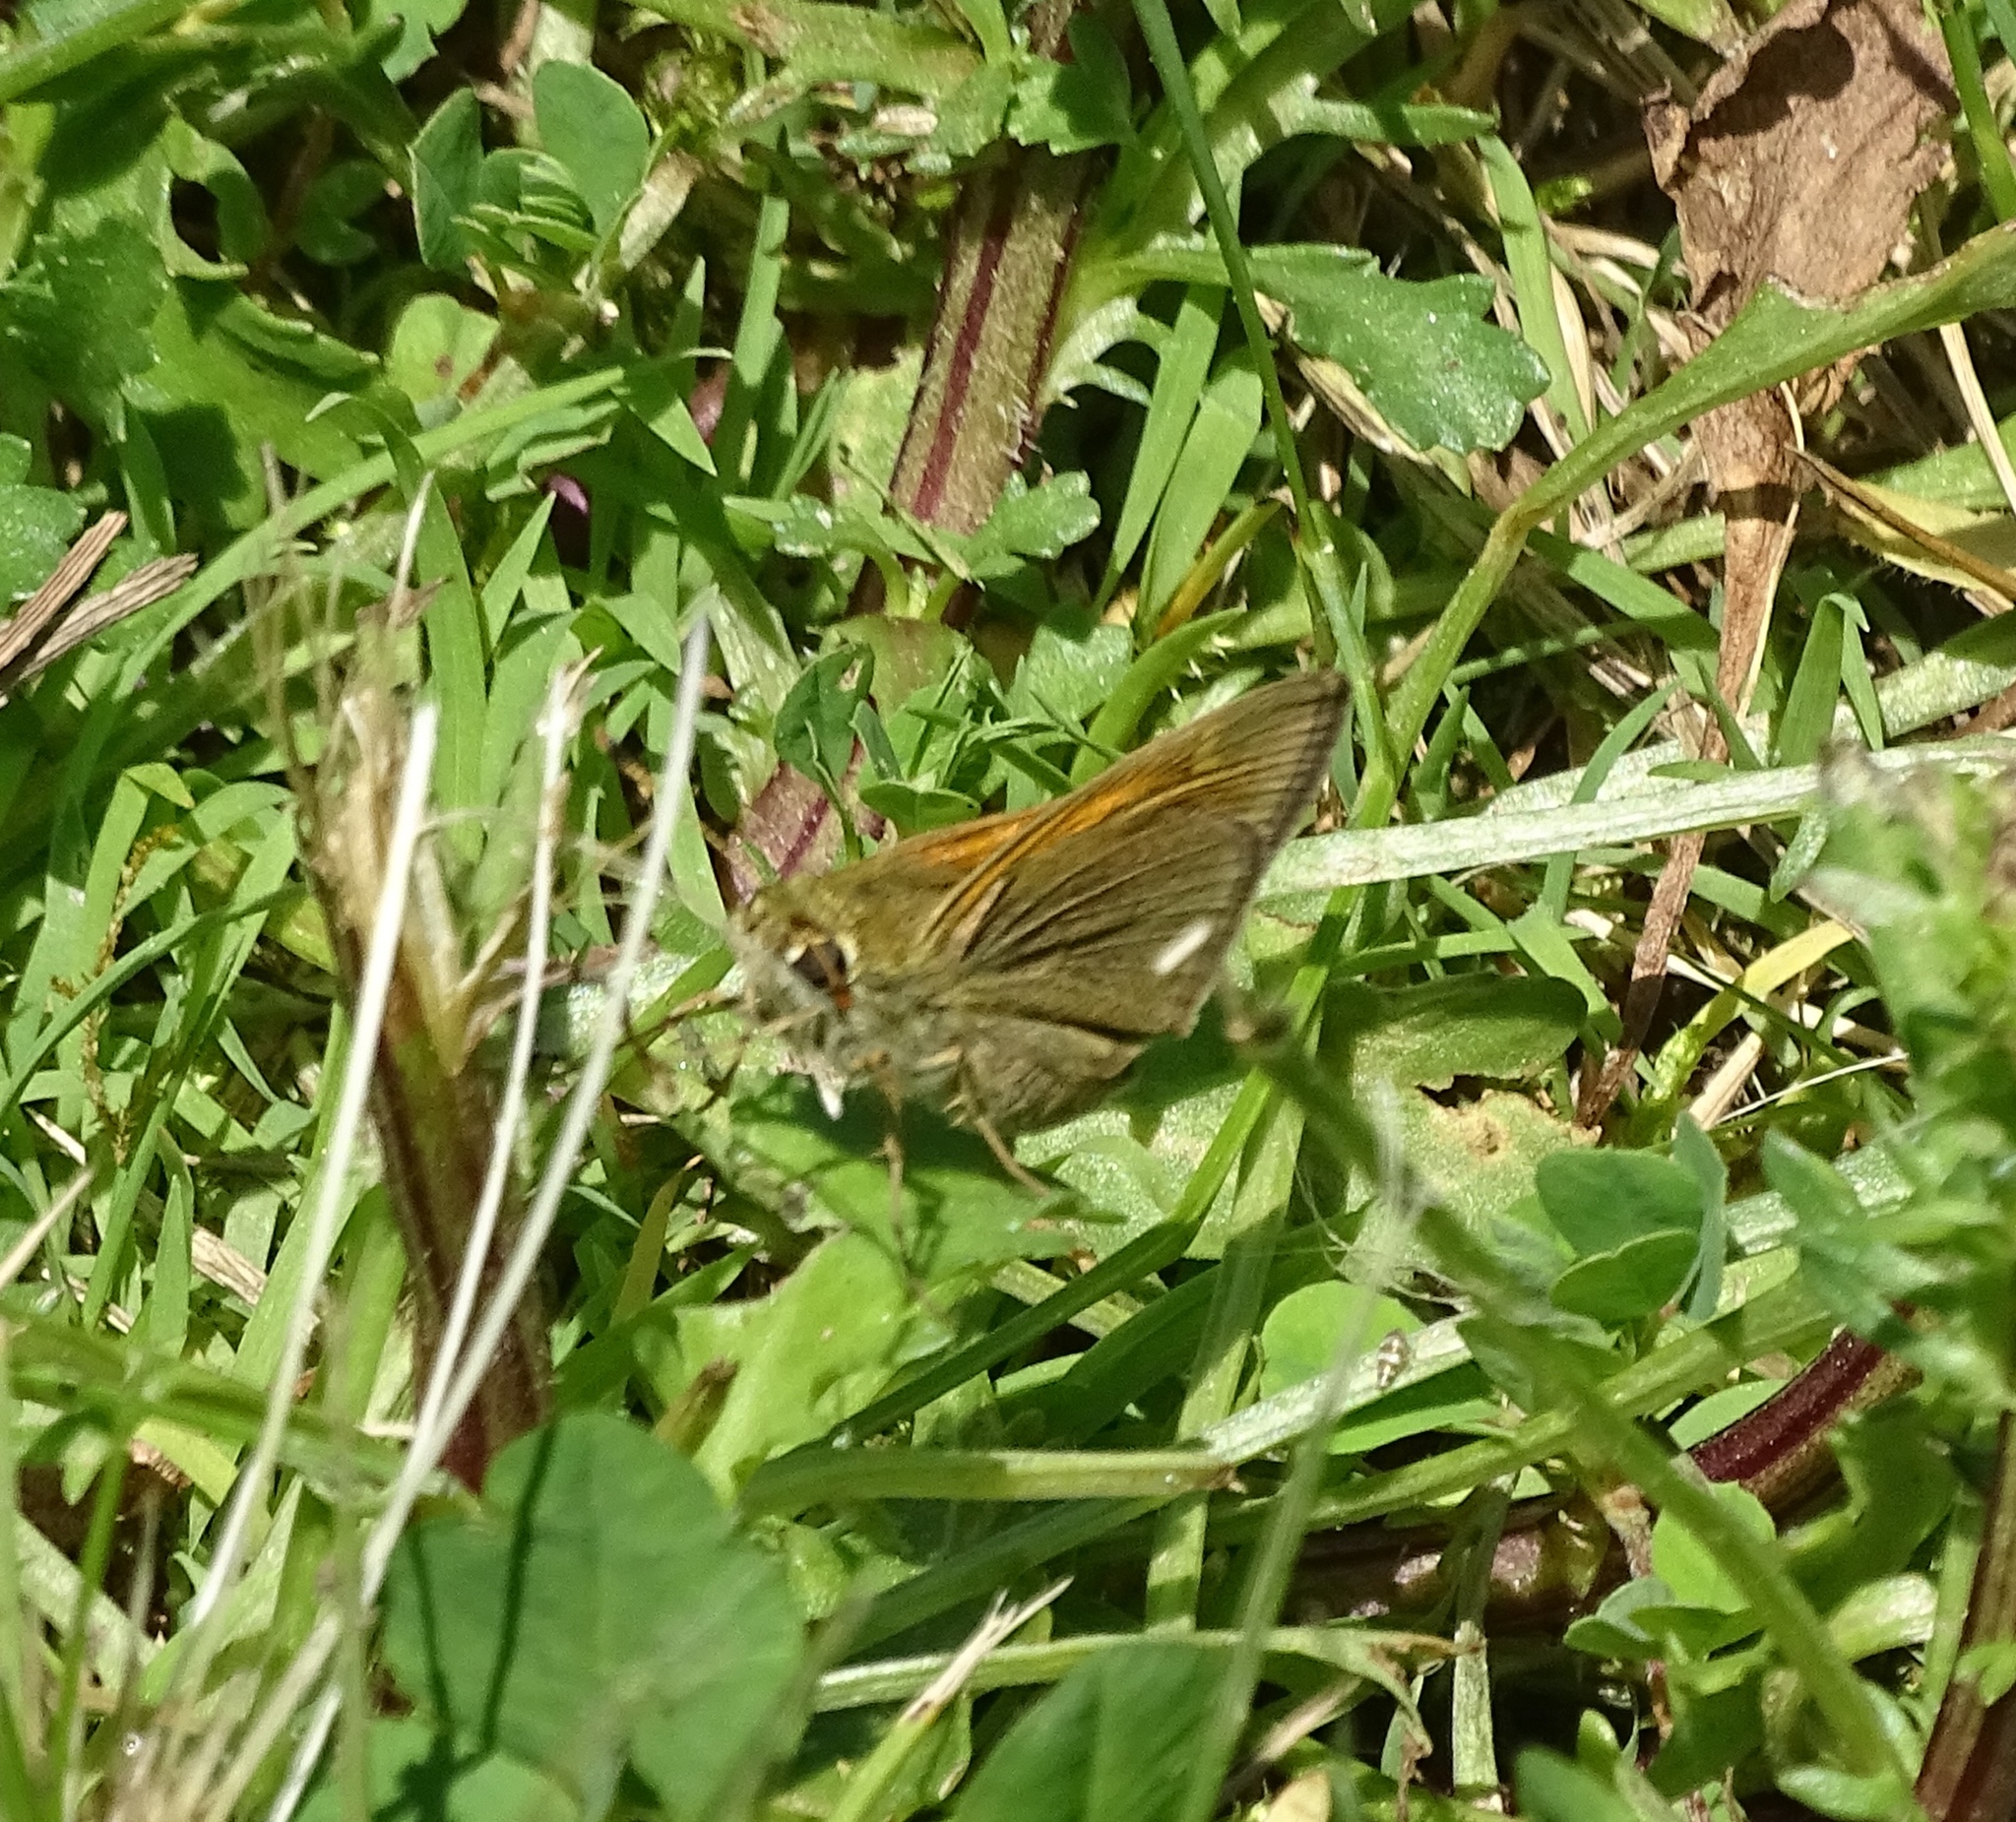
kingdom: Animalia
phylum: Arthropoda
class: Insecta
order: Lepidoptera
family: Hesperiidae
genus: Polites
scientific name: Polites themistocles
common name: Tawny-edged skipper
